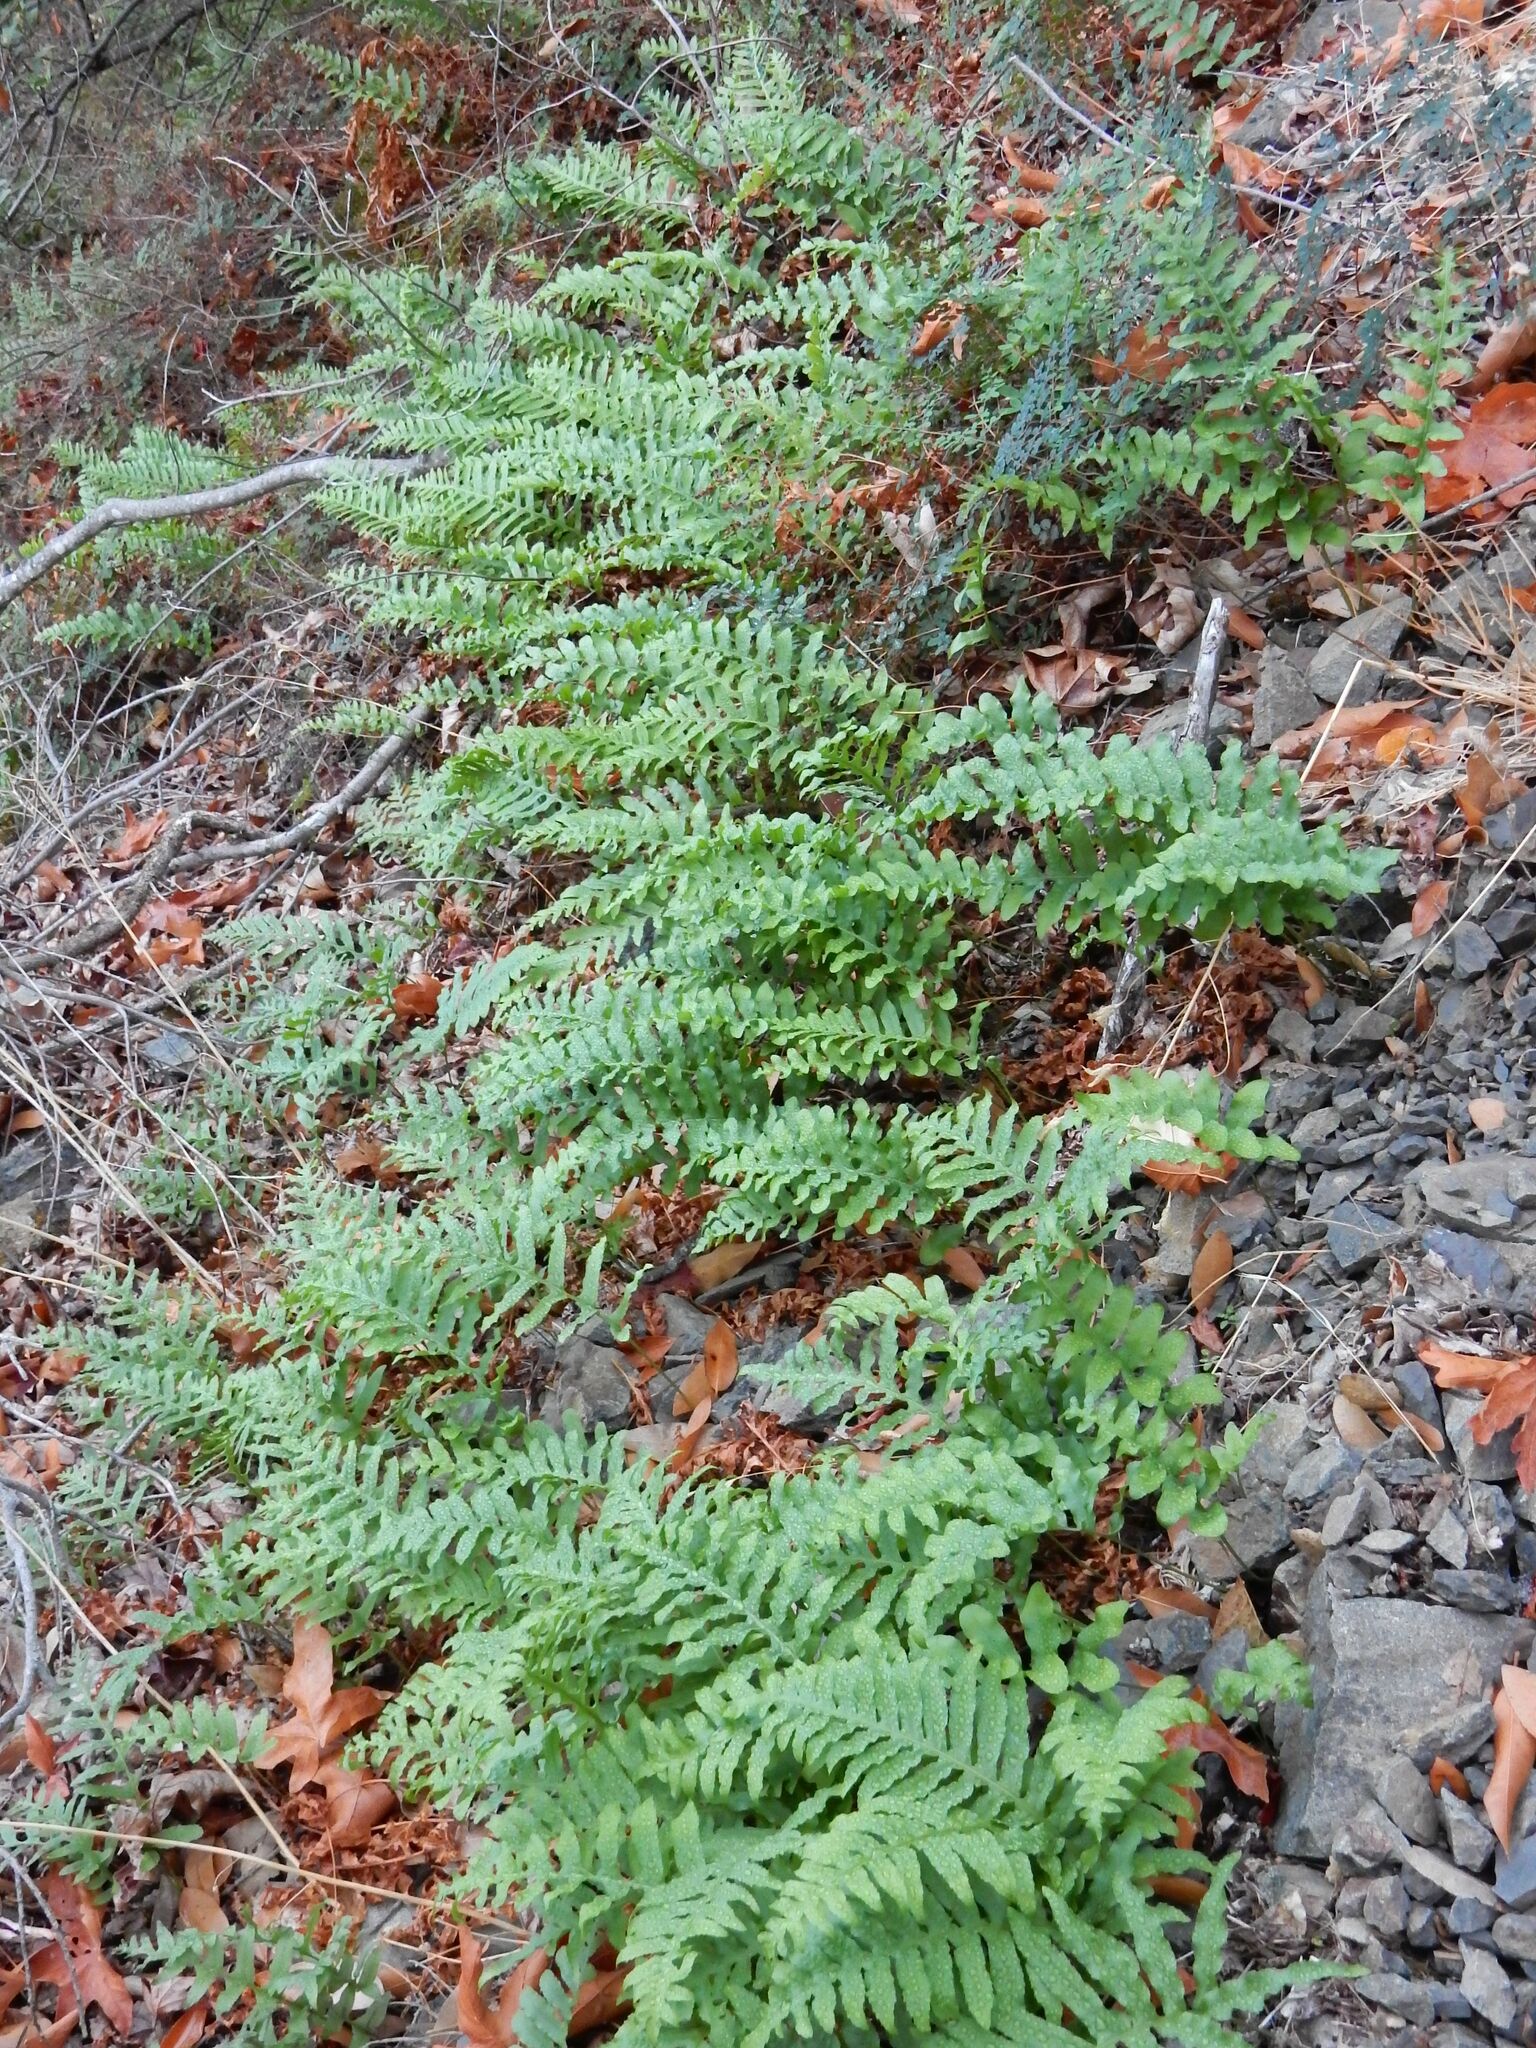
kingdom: Plantae
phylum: Tracheophyta
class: Polypodiopsida
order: Polypodiales
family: Polypodiaceae
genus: Polypodium
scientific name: Polypodium calirhiza
